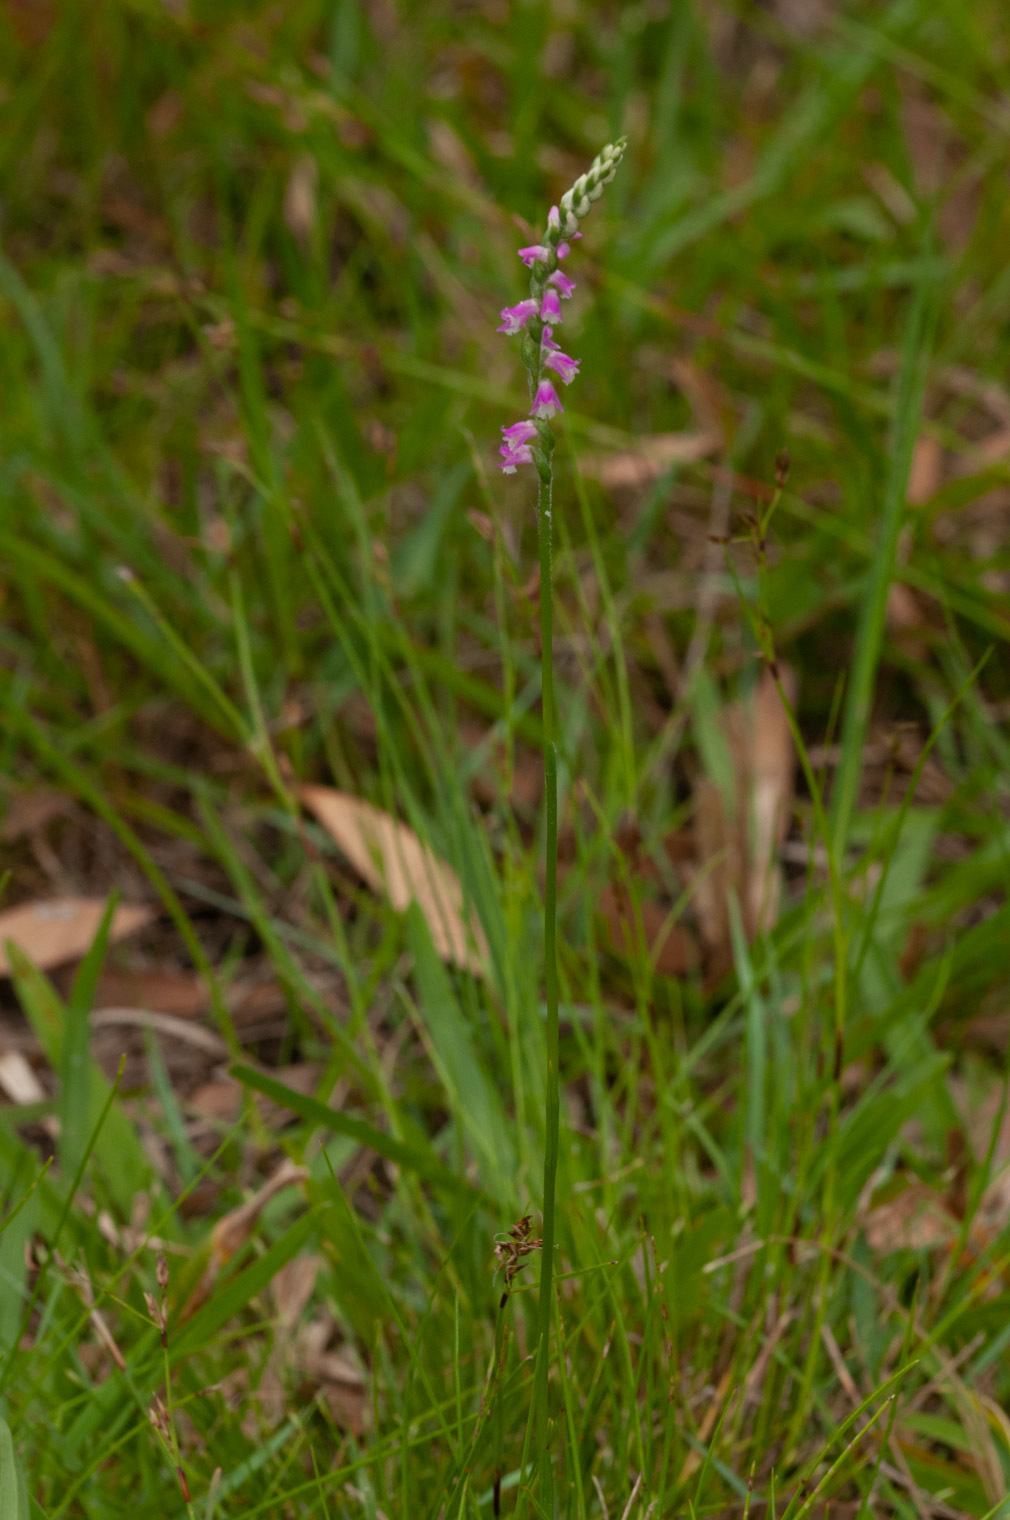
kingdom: Plantae
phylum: Tracheophyta
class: Liliopsida
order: Asparagales
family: Orchidaceae
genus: Spiranthes
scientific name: Spiranthes australis
